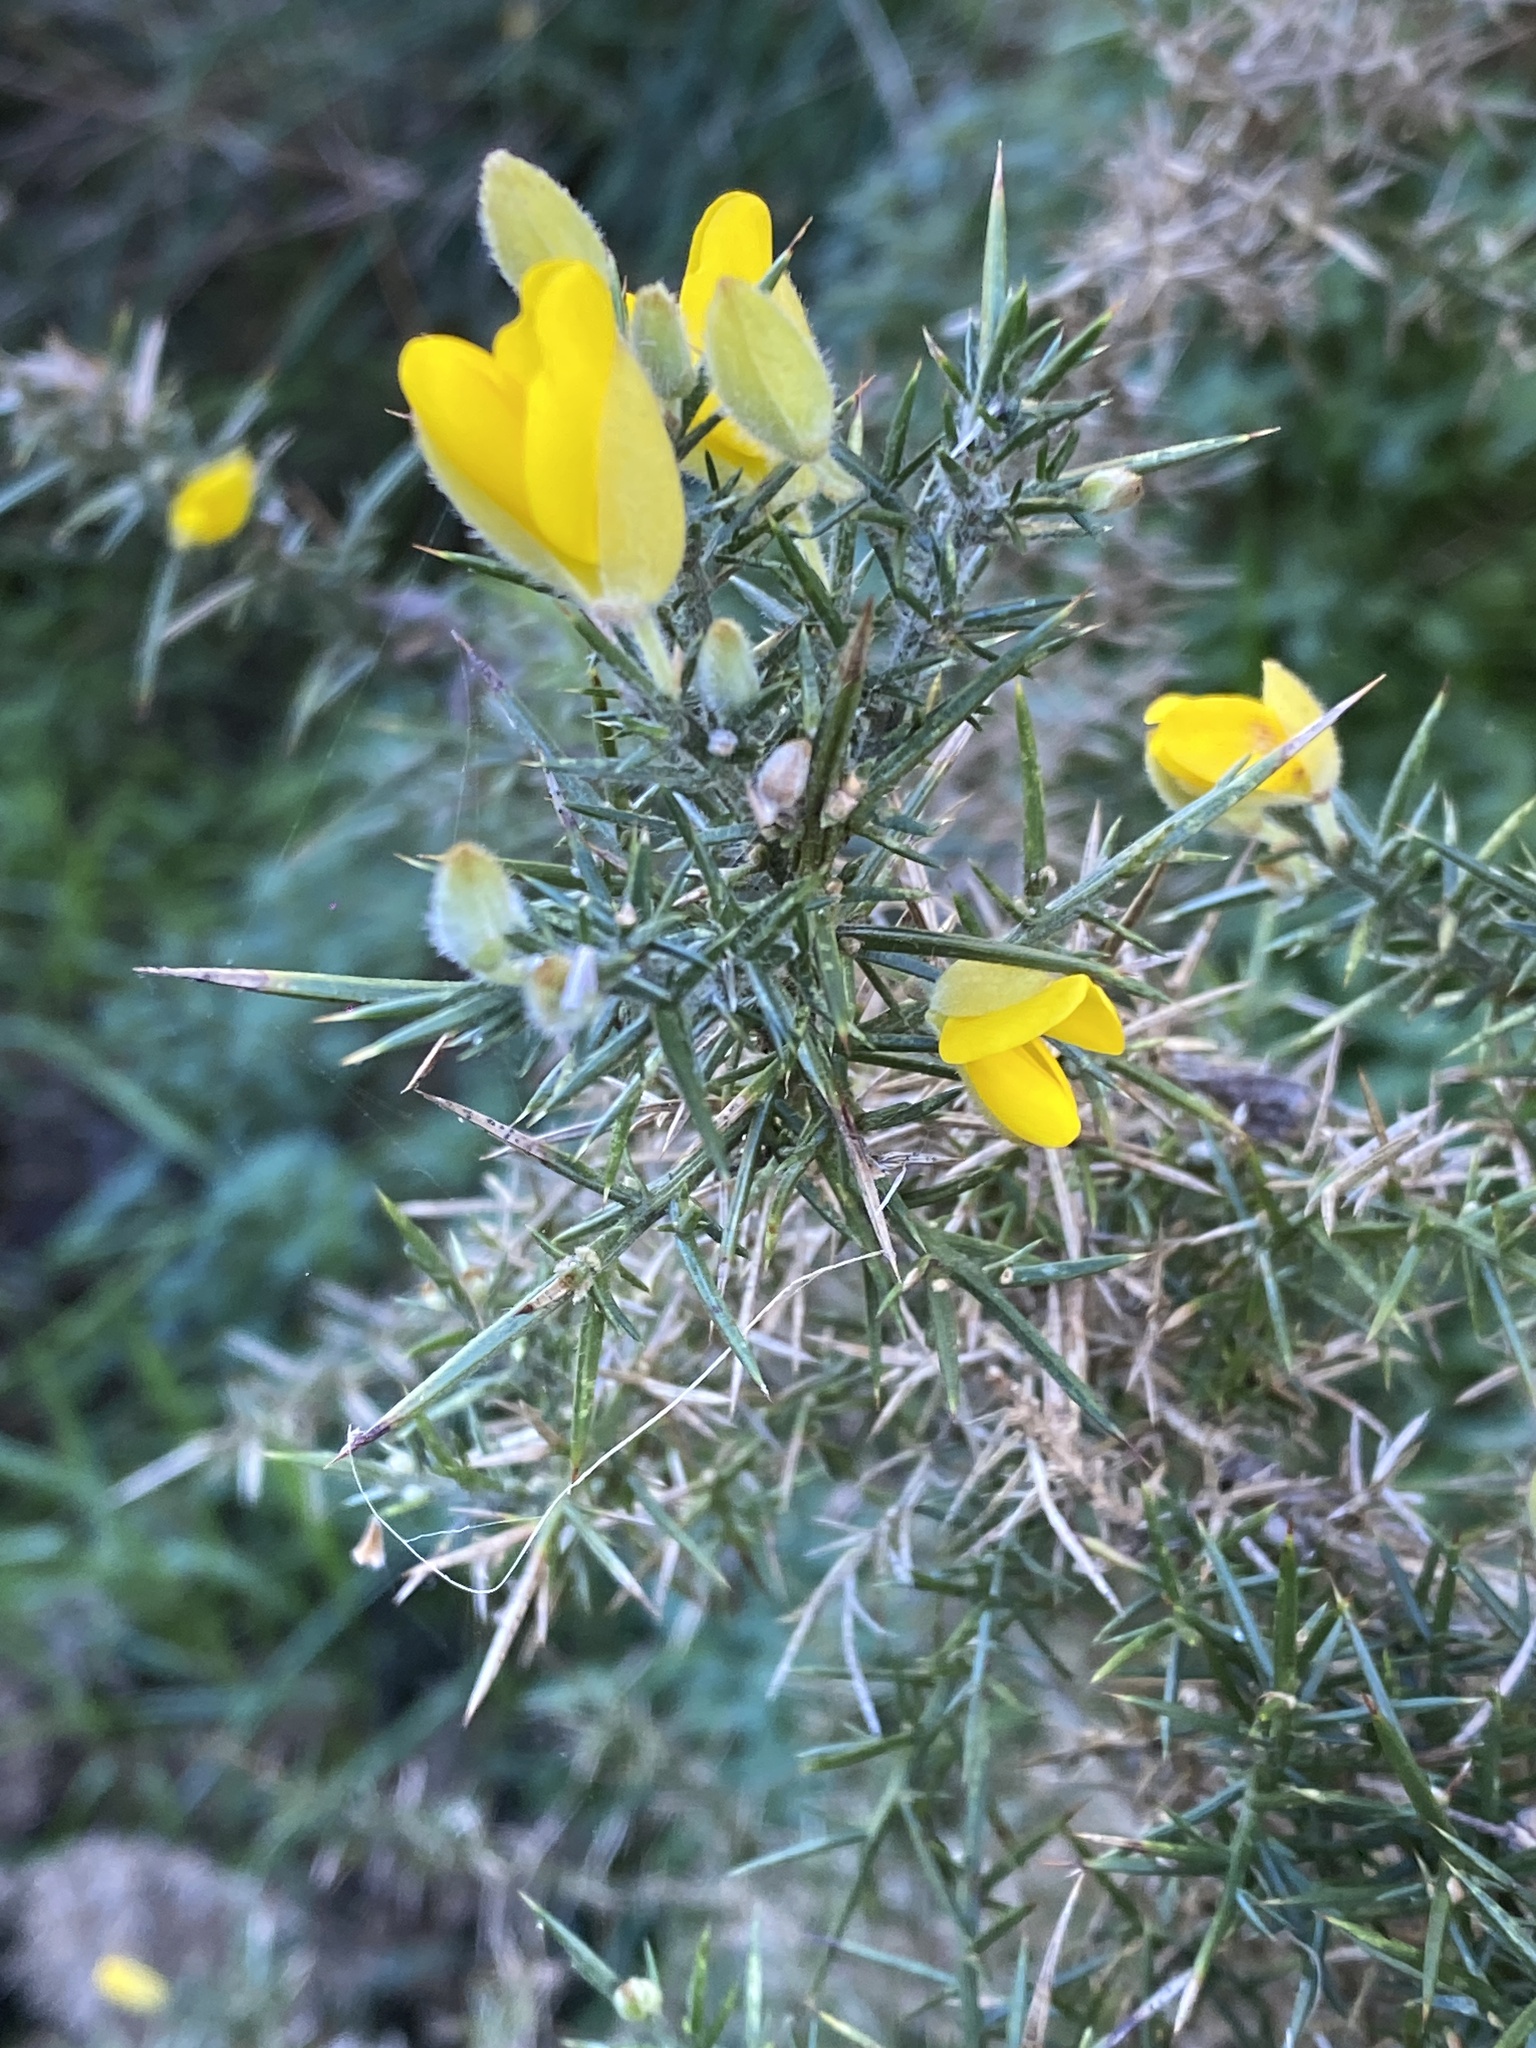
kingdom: Plantae
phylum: Tracheophyta
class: Magnoliopsida
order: Fabales
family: Fabaceae
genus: Ulex
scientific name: Ulex europaeus
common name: Common gorse
